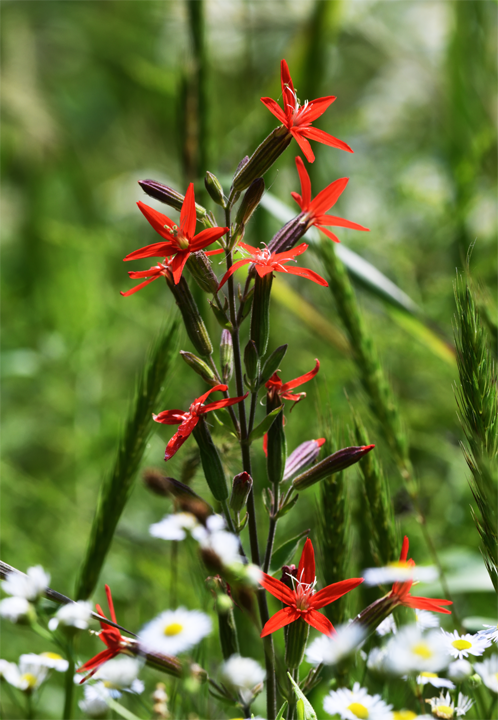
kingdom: Plantae
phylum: Tracheophyta
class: Magnoliopsida
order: Caryophyllales
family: Caryophyllaceae
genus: Silene
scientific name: Silene regia
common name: Royal catchfly
